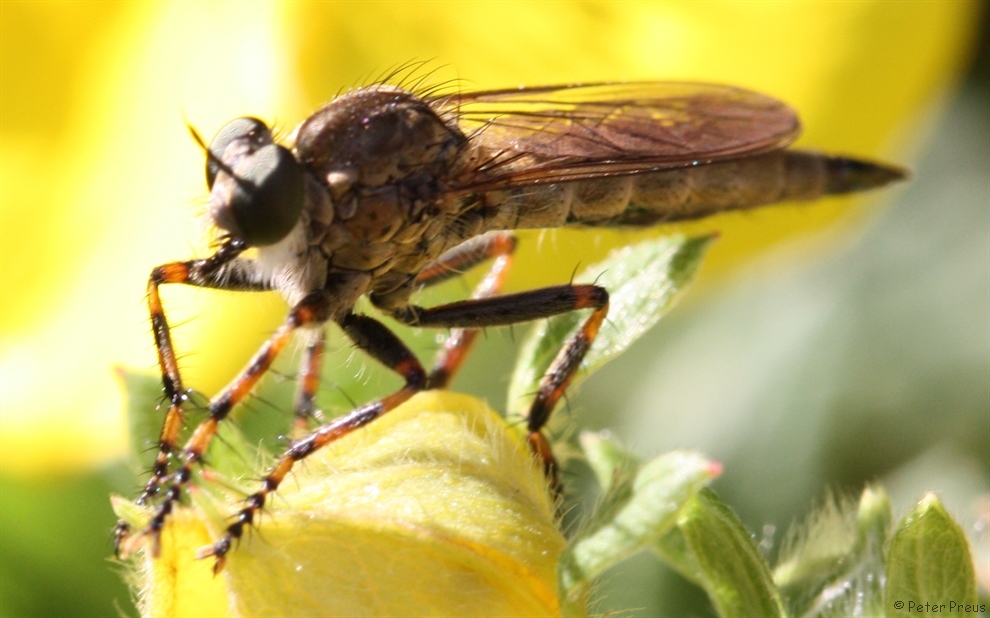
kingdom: Animalia
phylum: Arthropoda
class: Insecta
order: Diptera
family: Asilidae
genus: Epitriptus
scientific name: Epitriptus cingulatus
